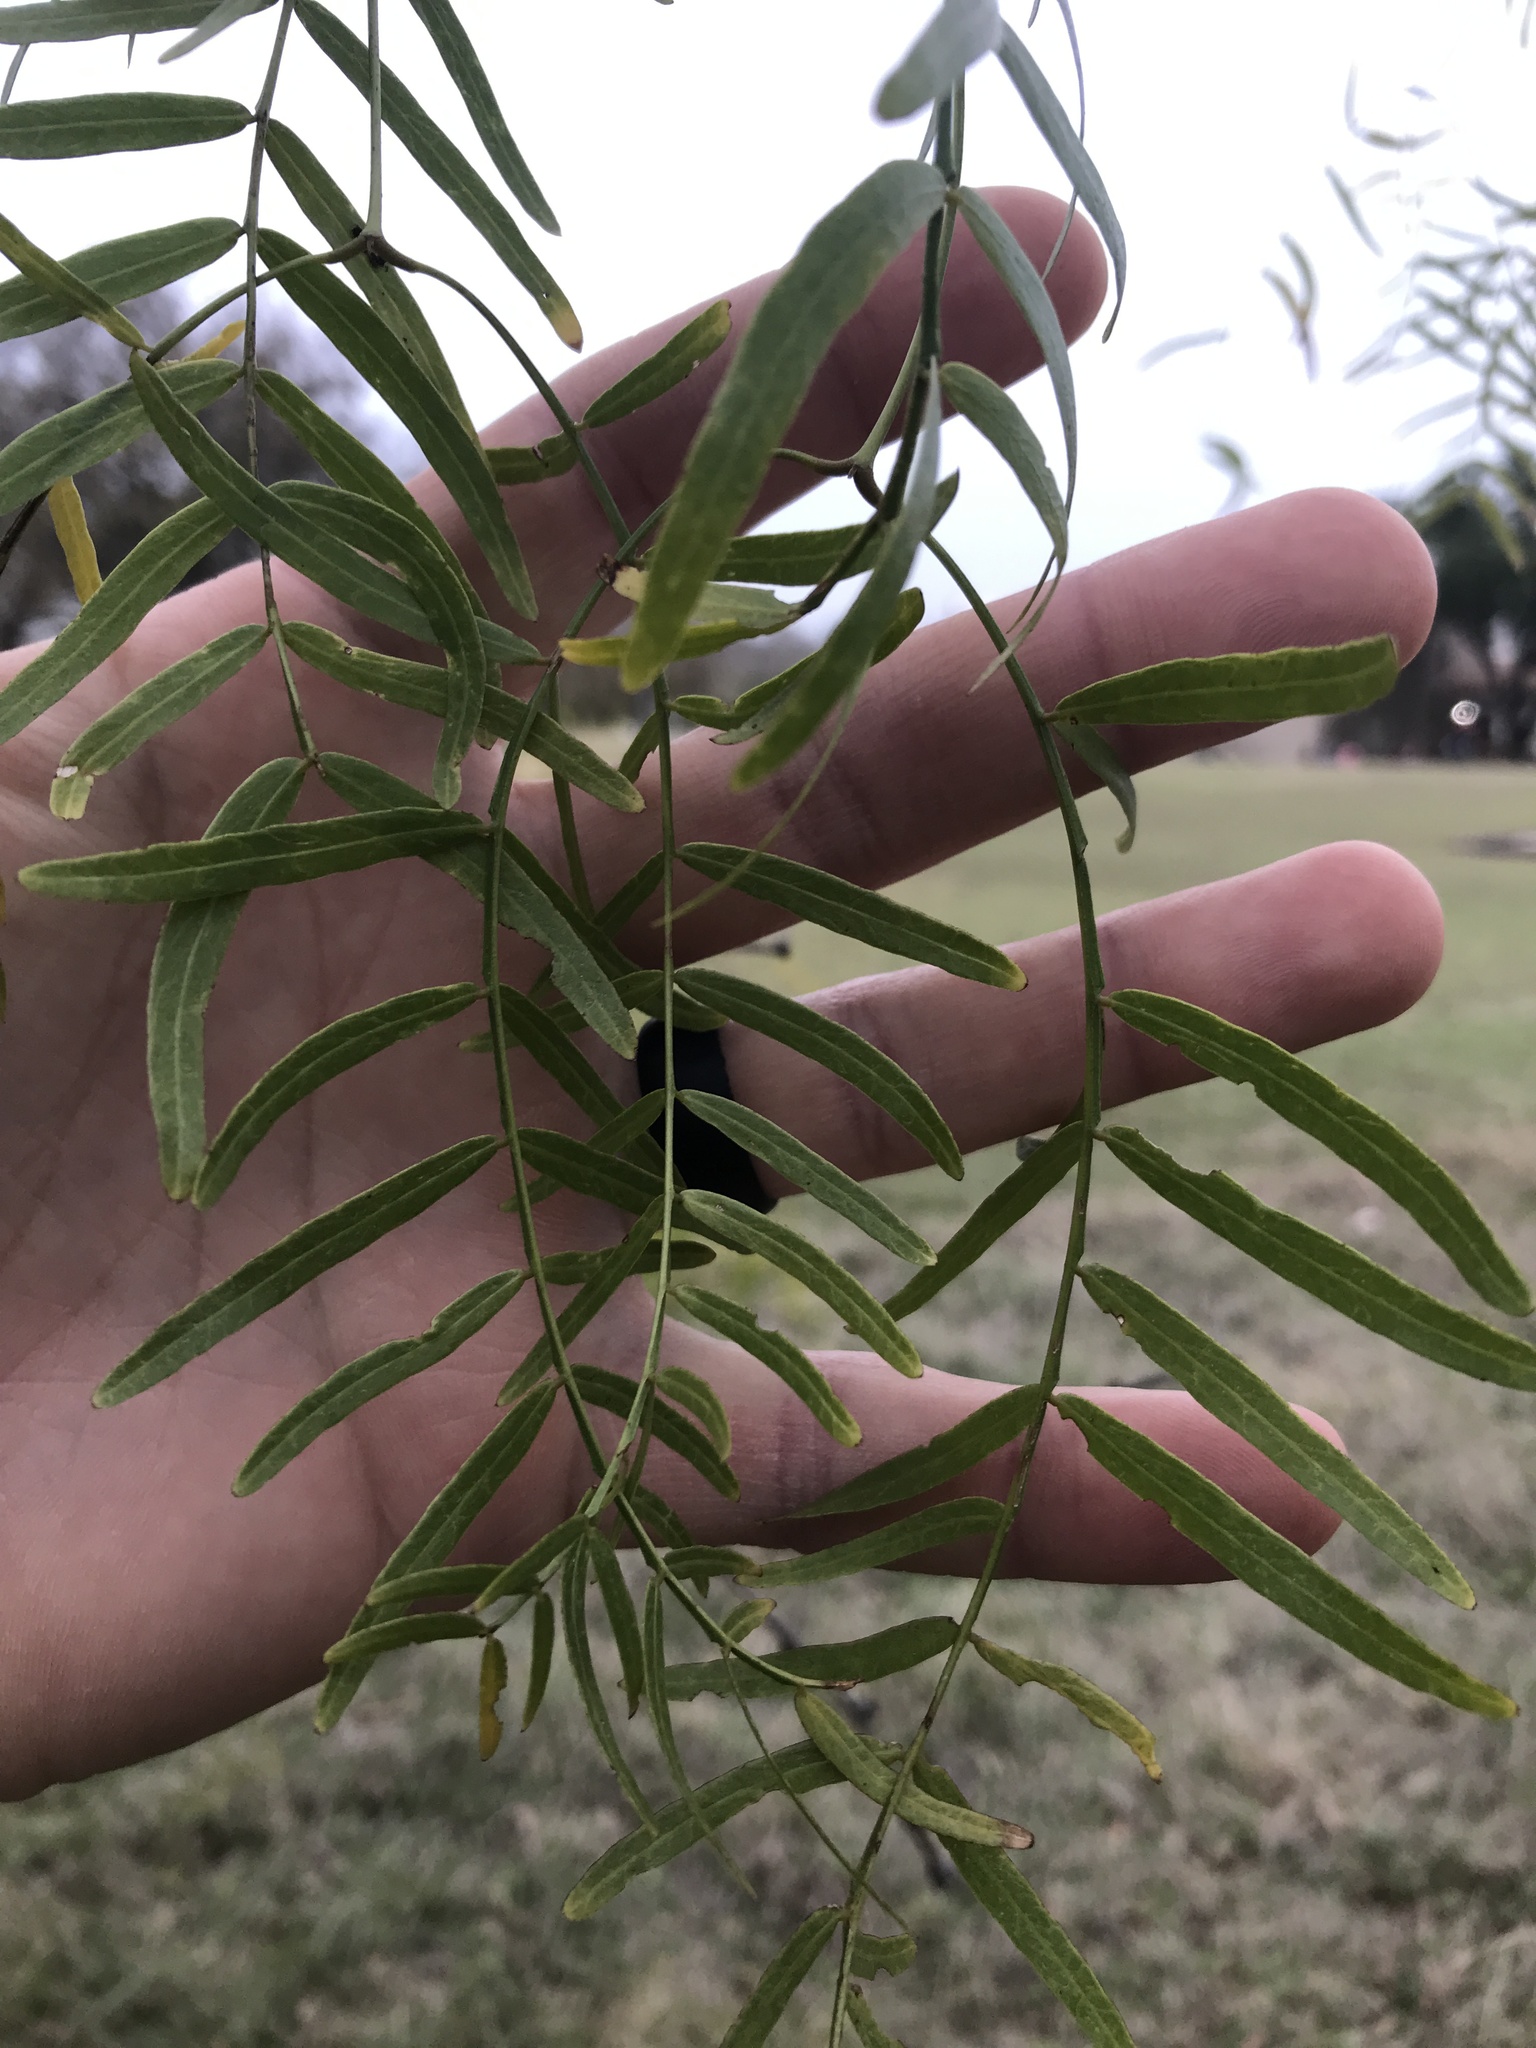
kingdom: Plantae
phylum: Tracheophyta
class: Magnoliopsida
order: Fabales
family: Fabaceae
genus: Prosopis
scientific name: Prosopis glandulosa
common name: Honey mesquite
